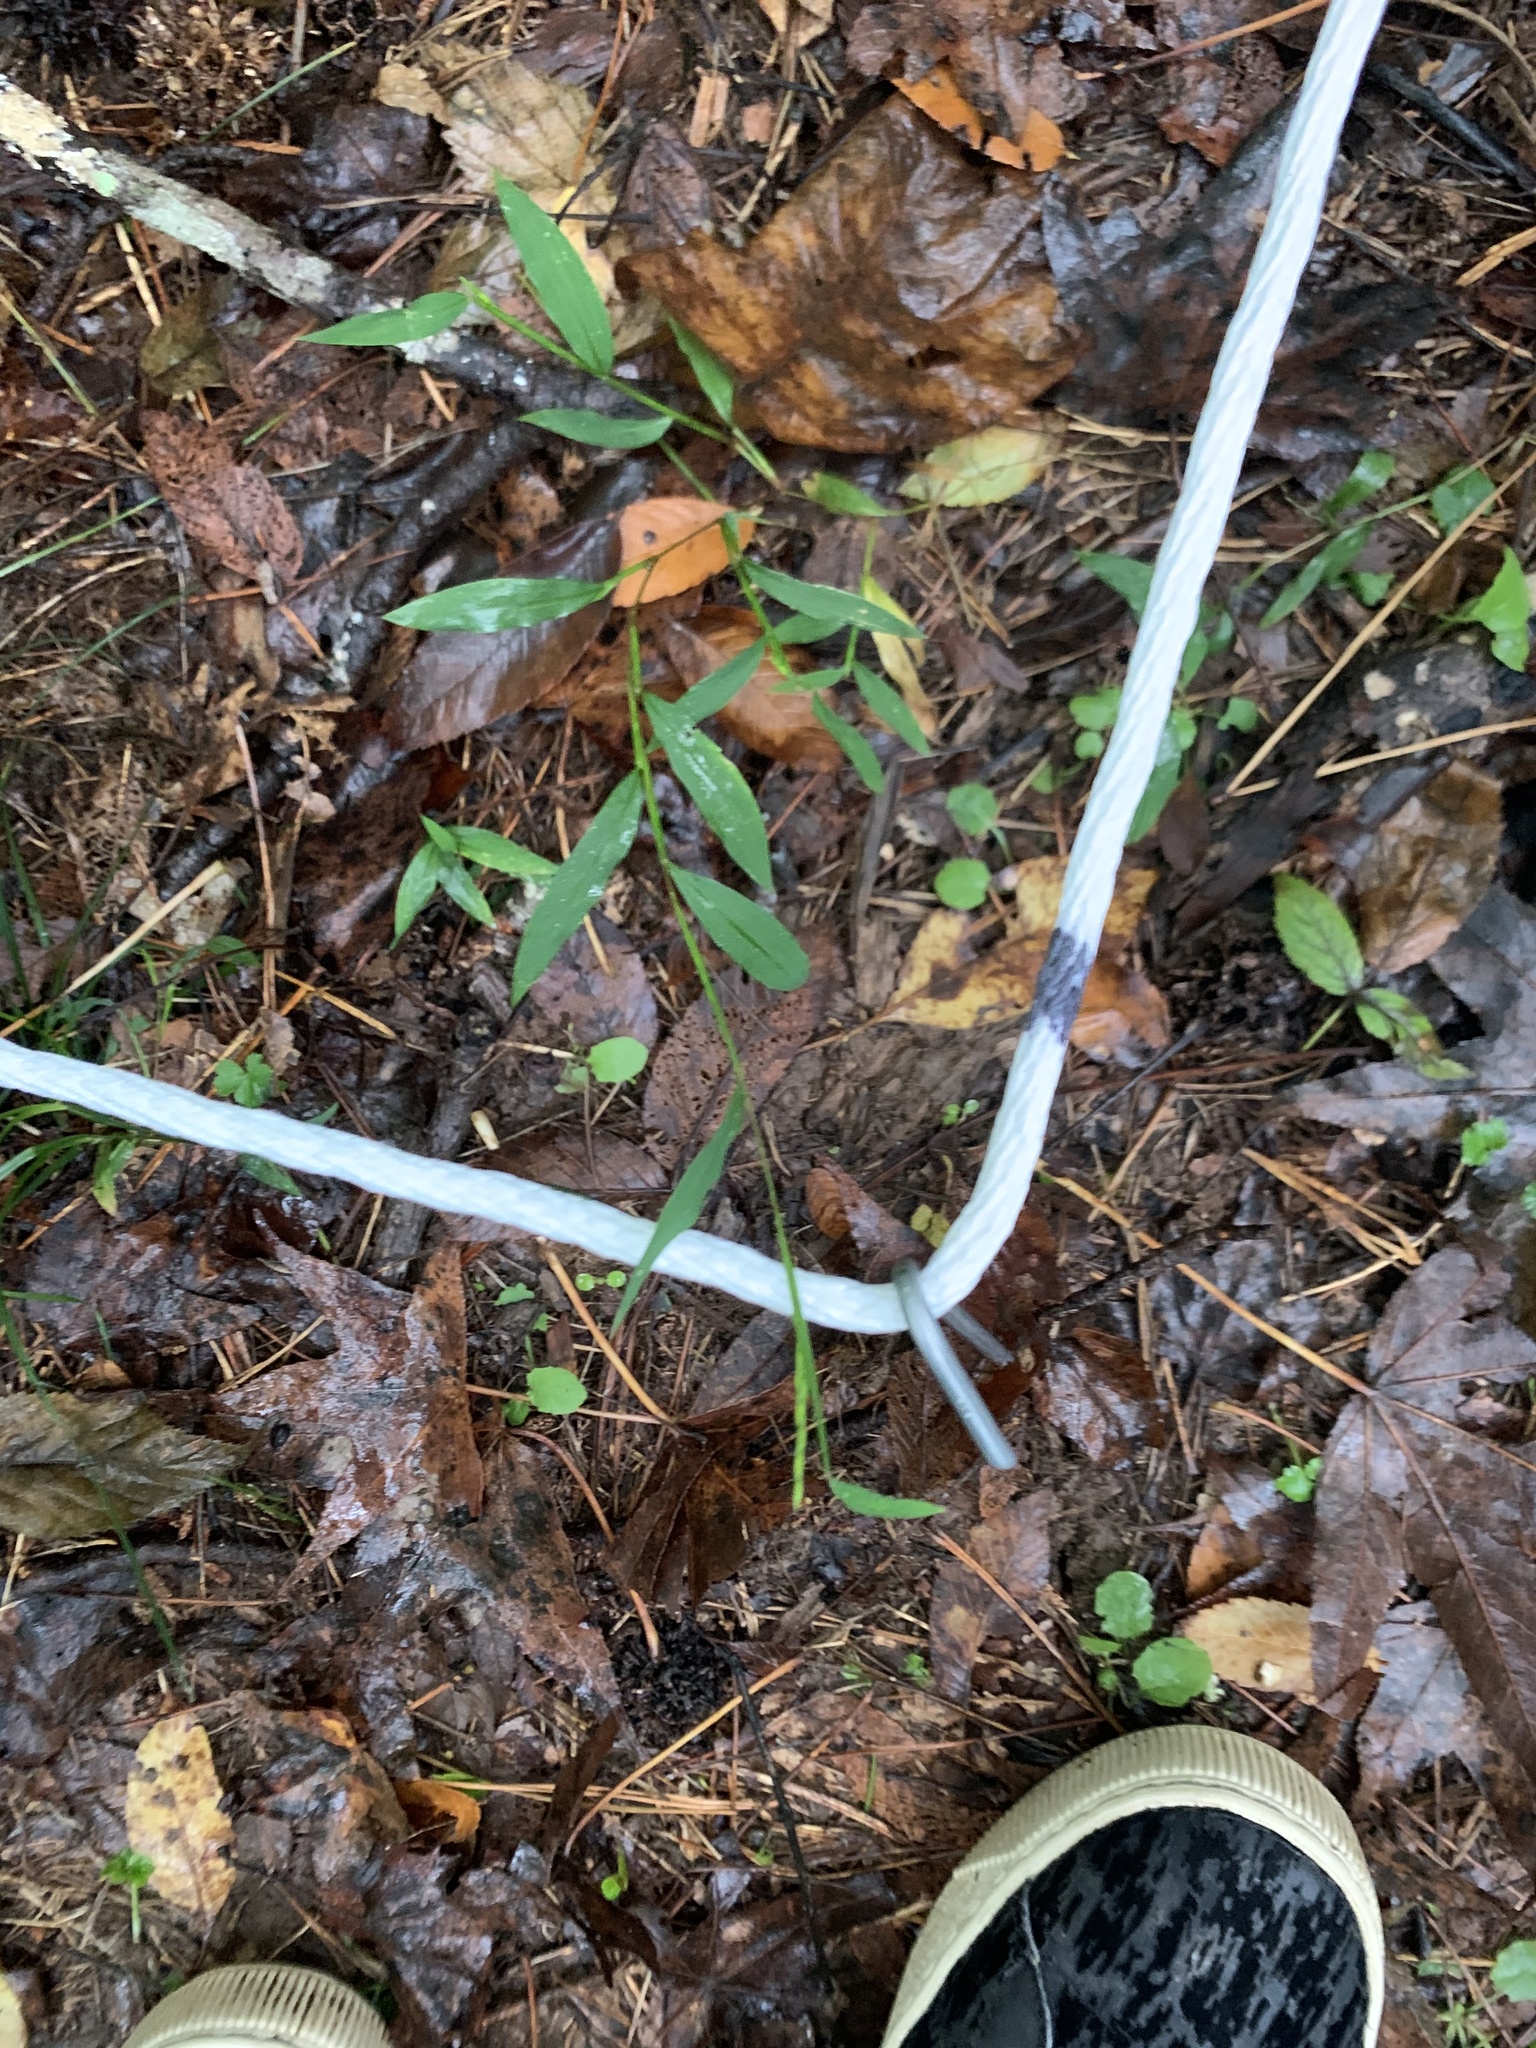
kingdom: Plantae
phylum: Tracheophyta
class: Liliopsida
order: Poales
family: Poaceae
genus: Microstegium
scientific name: Microstegium vimineum
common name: Japanese stiltgrass
